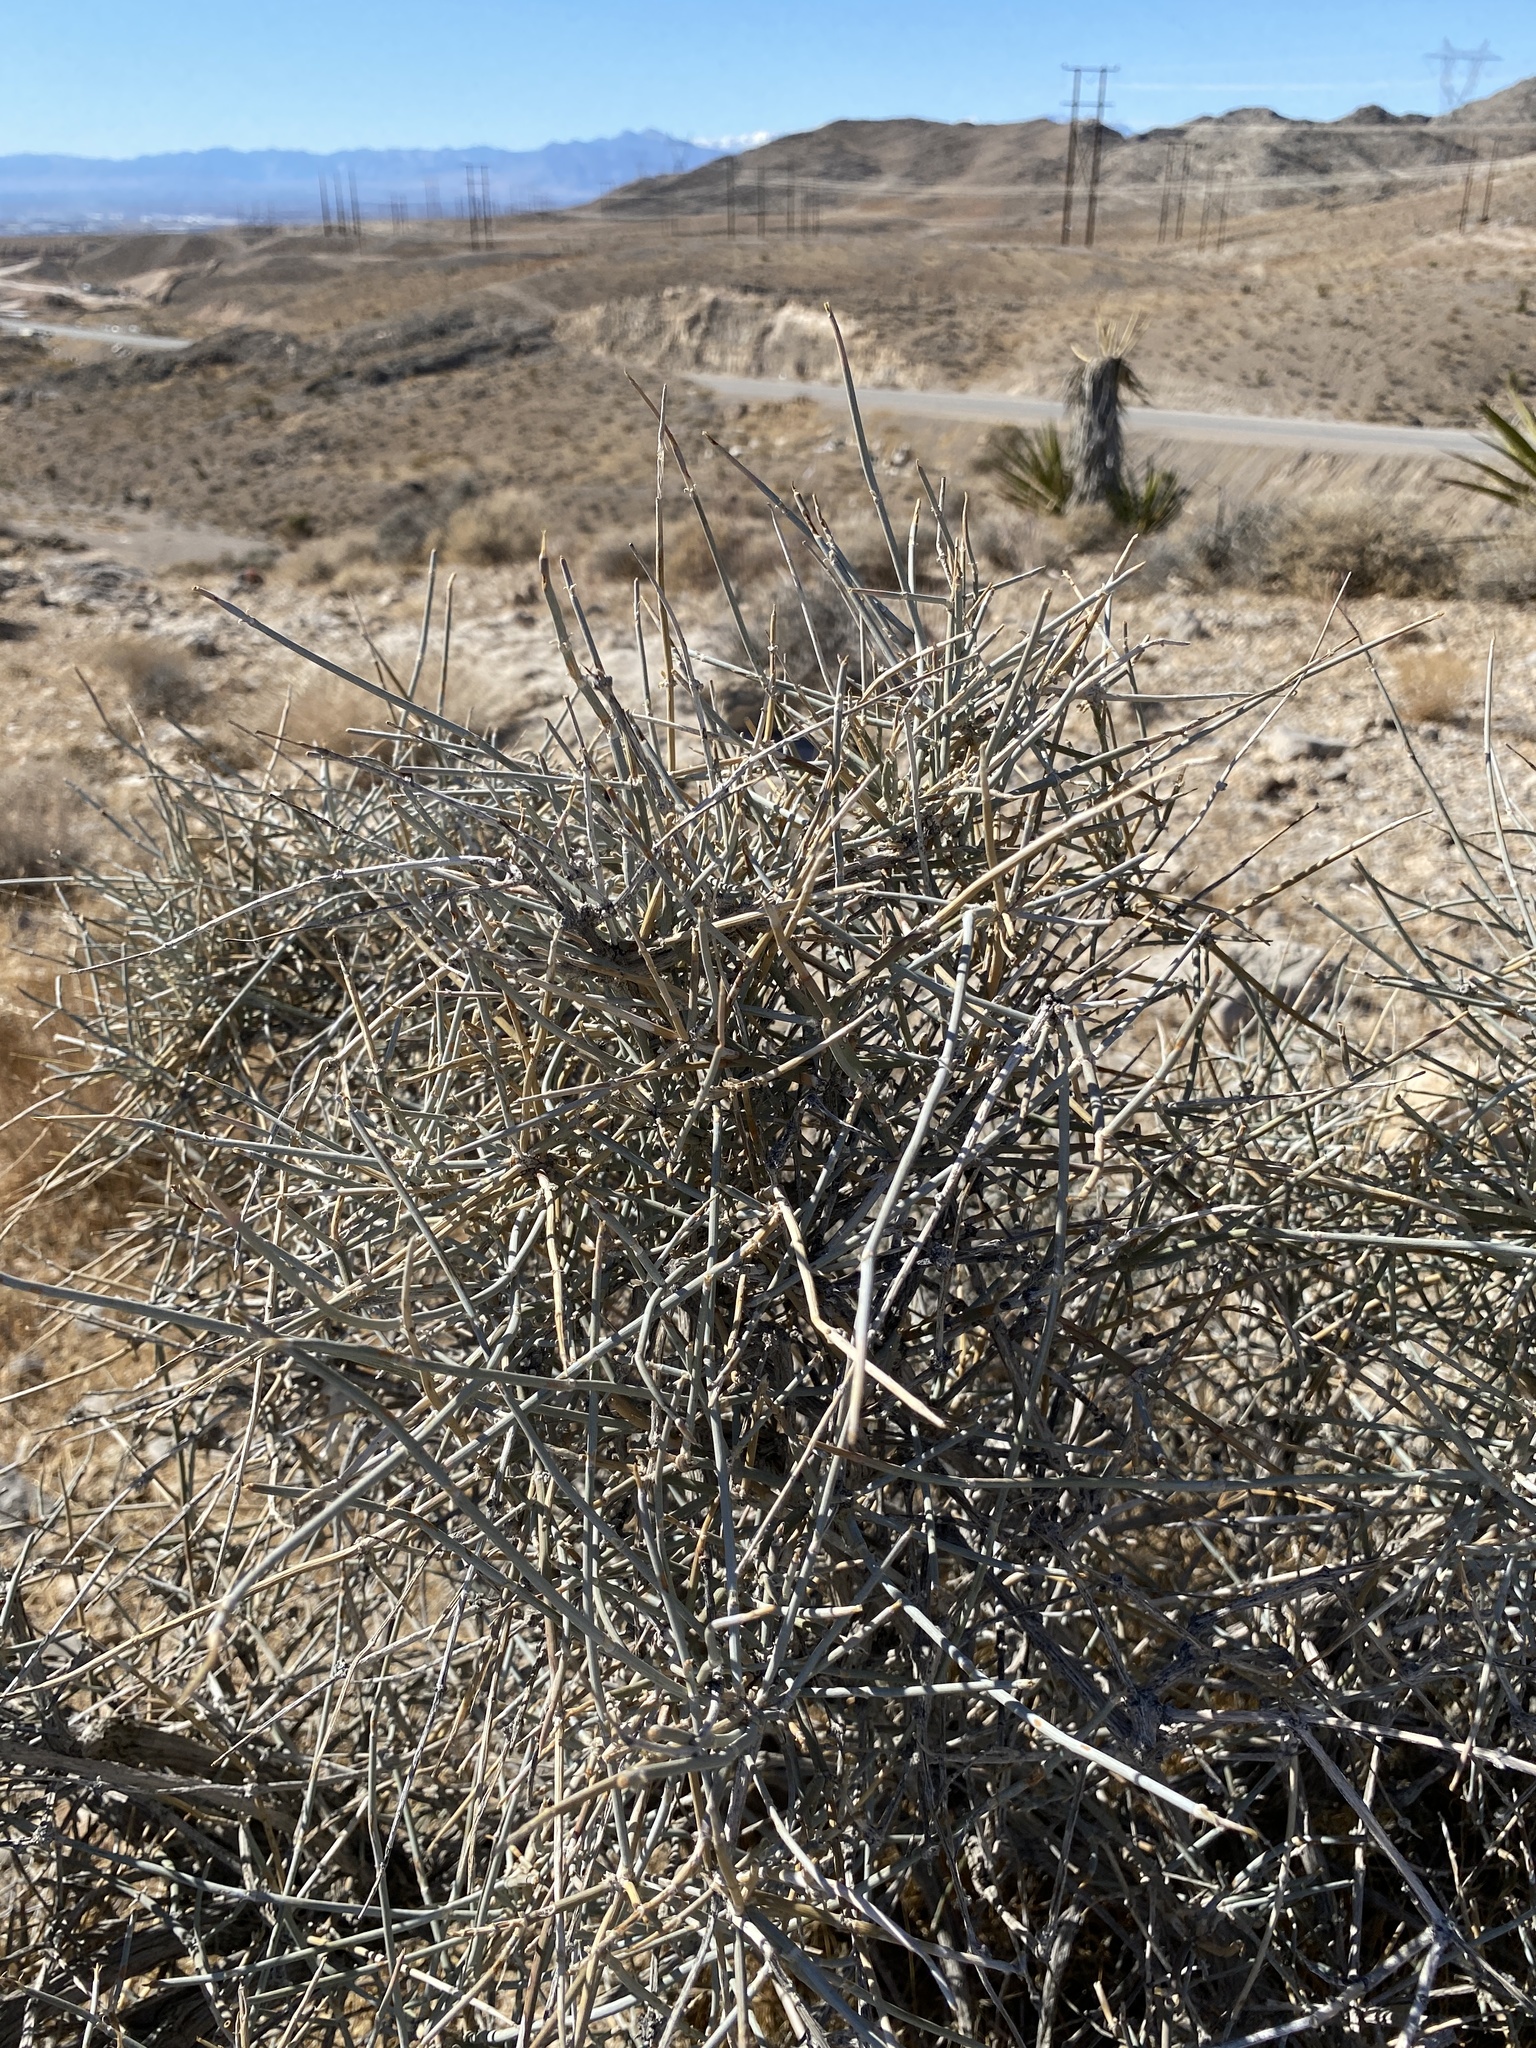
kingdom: Plantae
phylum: Tracheophyta
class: Gnetopsida
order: Ephedrales
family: Ephedraceae
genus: Ephedra
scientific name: Ephedra nevadensis
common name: Gray ephedra
